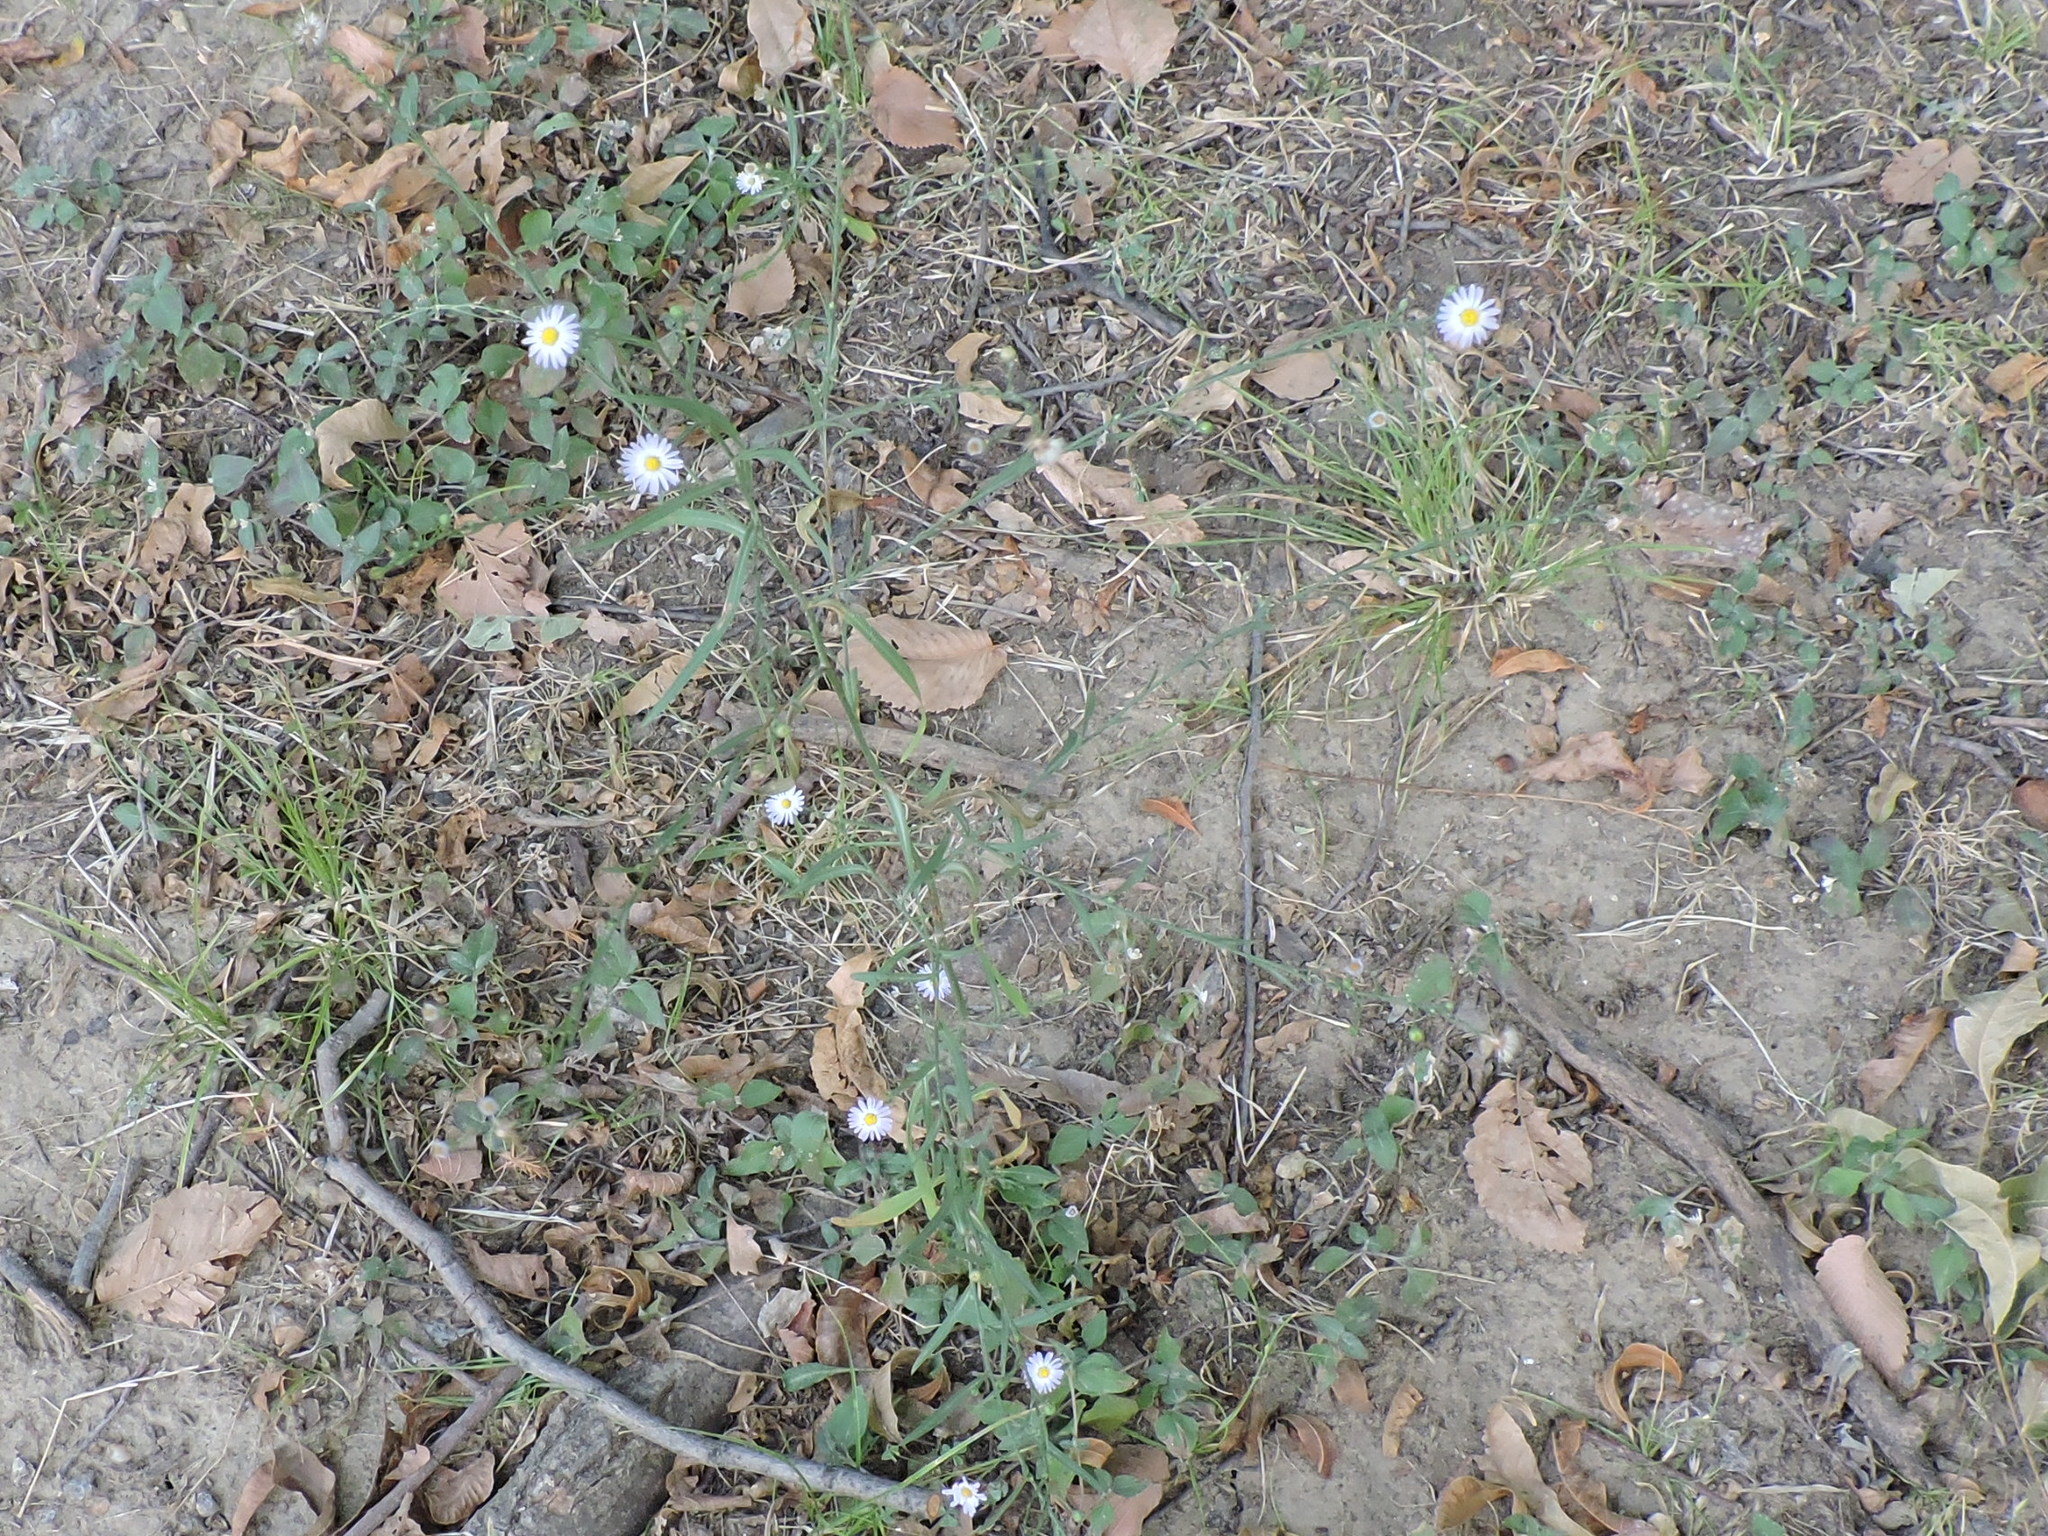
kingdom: Plantae
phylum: Tracheophyta
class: Magnoliopsida
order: Asterales
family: Asteraceae
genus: Symphyotrichum
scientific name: Symphyotrichum divaricatum
